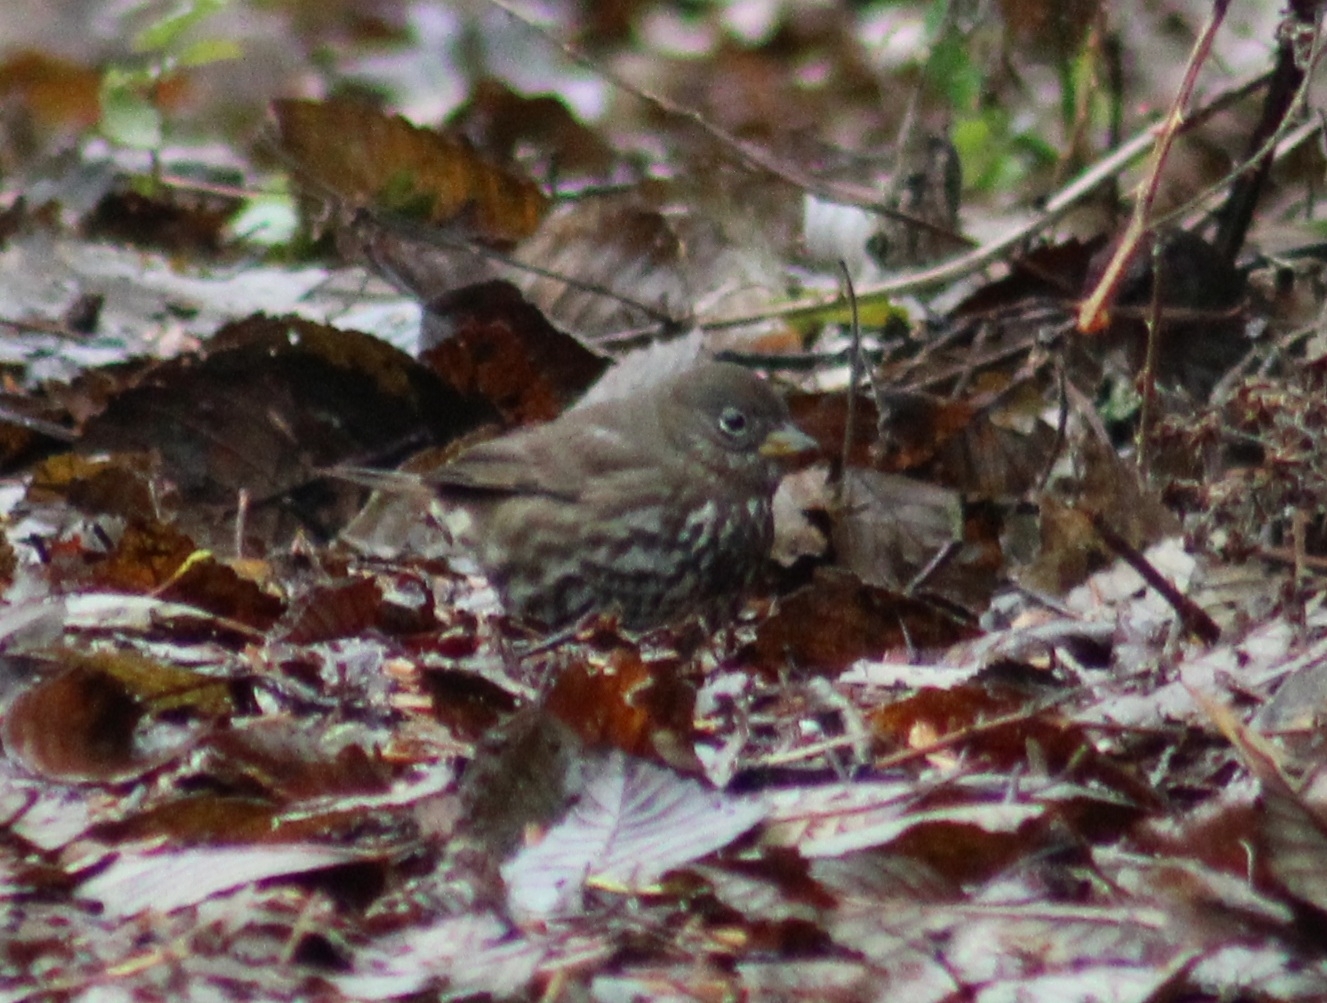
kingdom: Animalia
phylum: Chordata
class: Aves
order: Passeriformes
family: Passerellidae
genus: Passerella
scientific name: Passerella iliaca
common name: Fox sparrow
